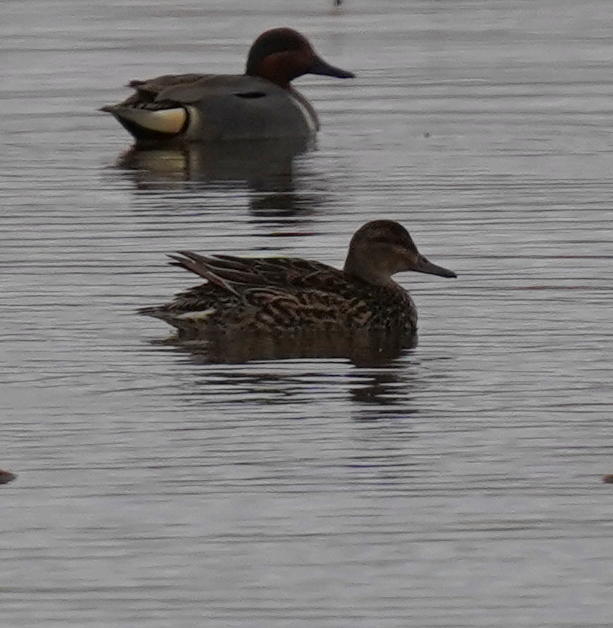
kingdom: Animalia
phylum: Chordata
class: Aves
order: Anseriformes
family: Anatidae
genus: Anas
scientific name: Anas crecca
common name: Eurasian teal
